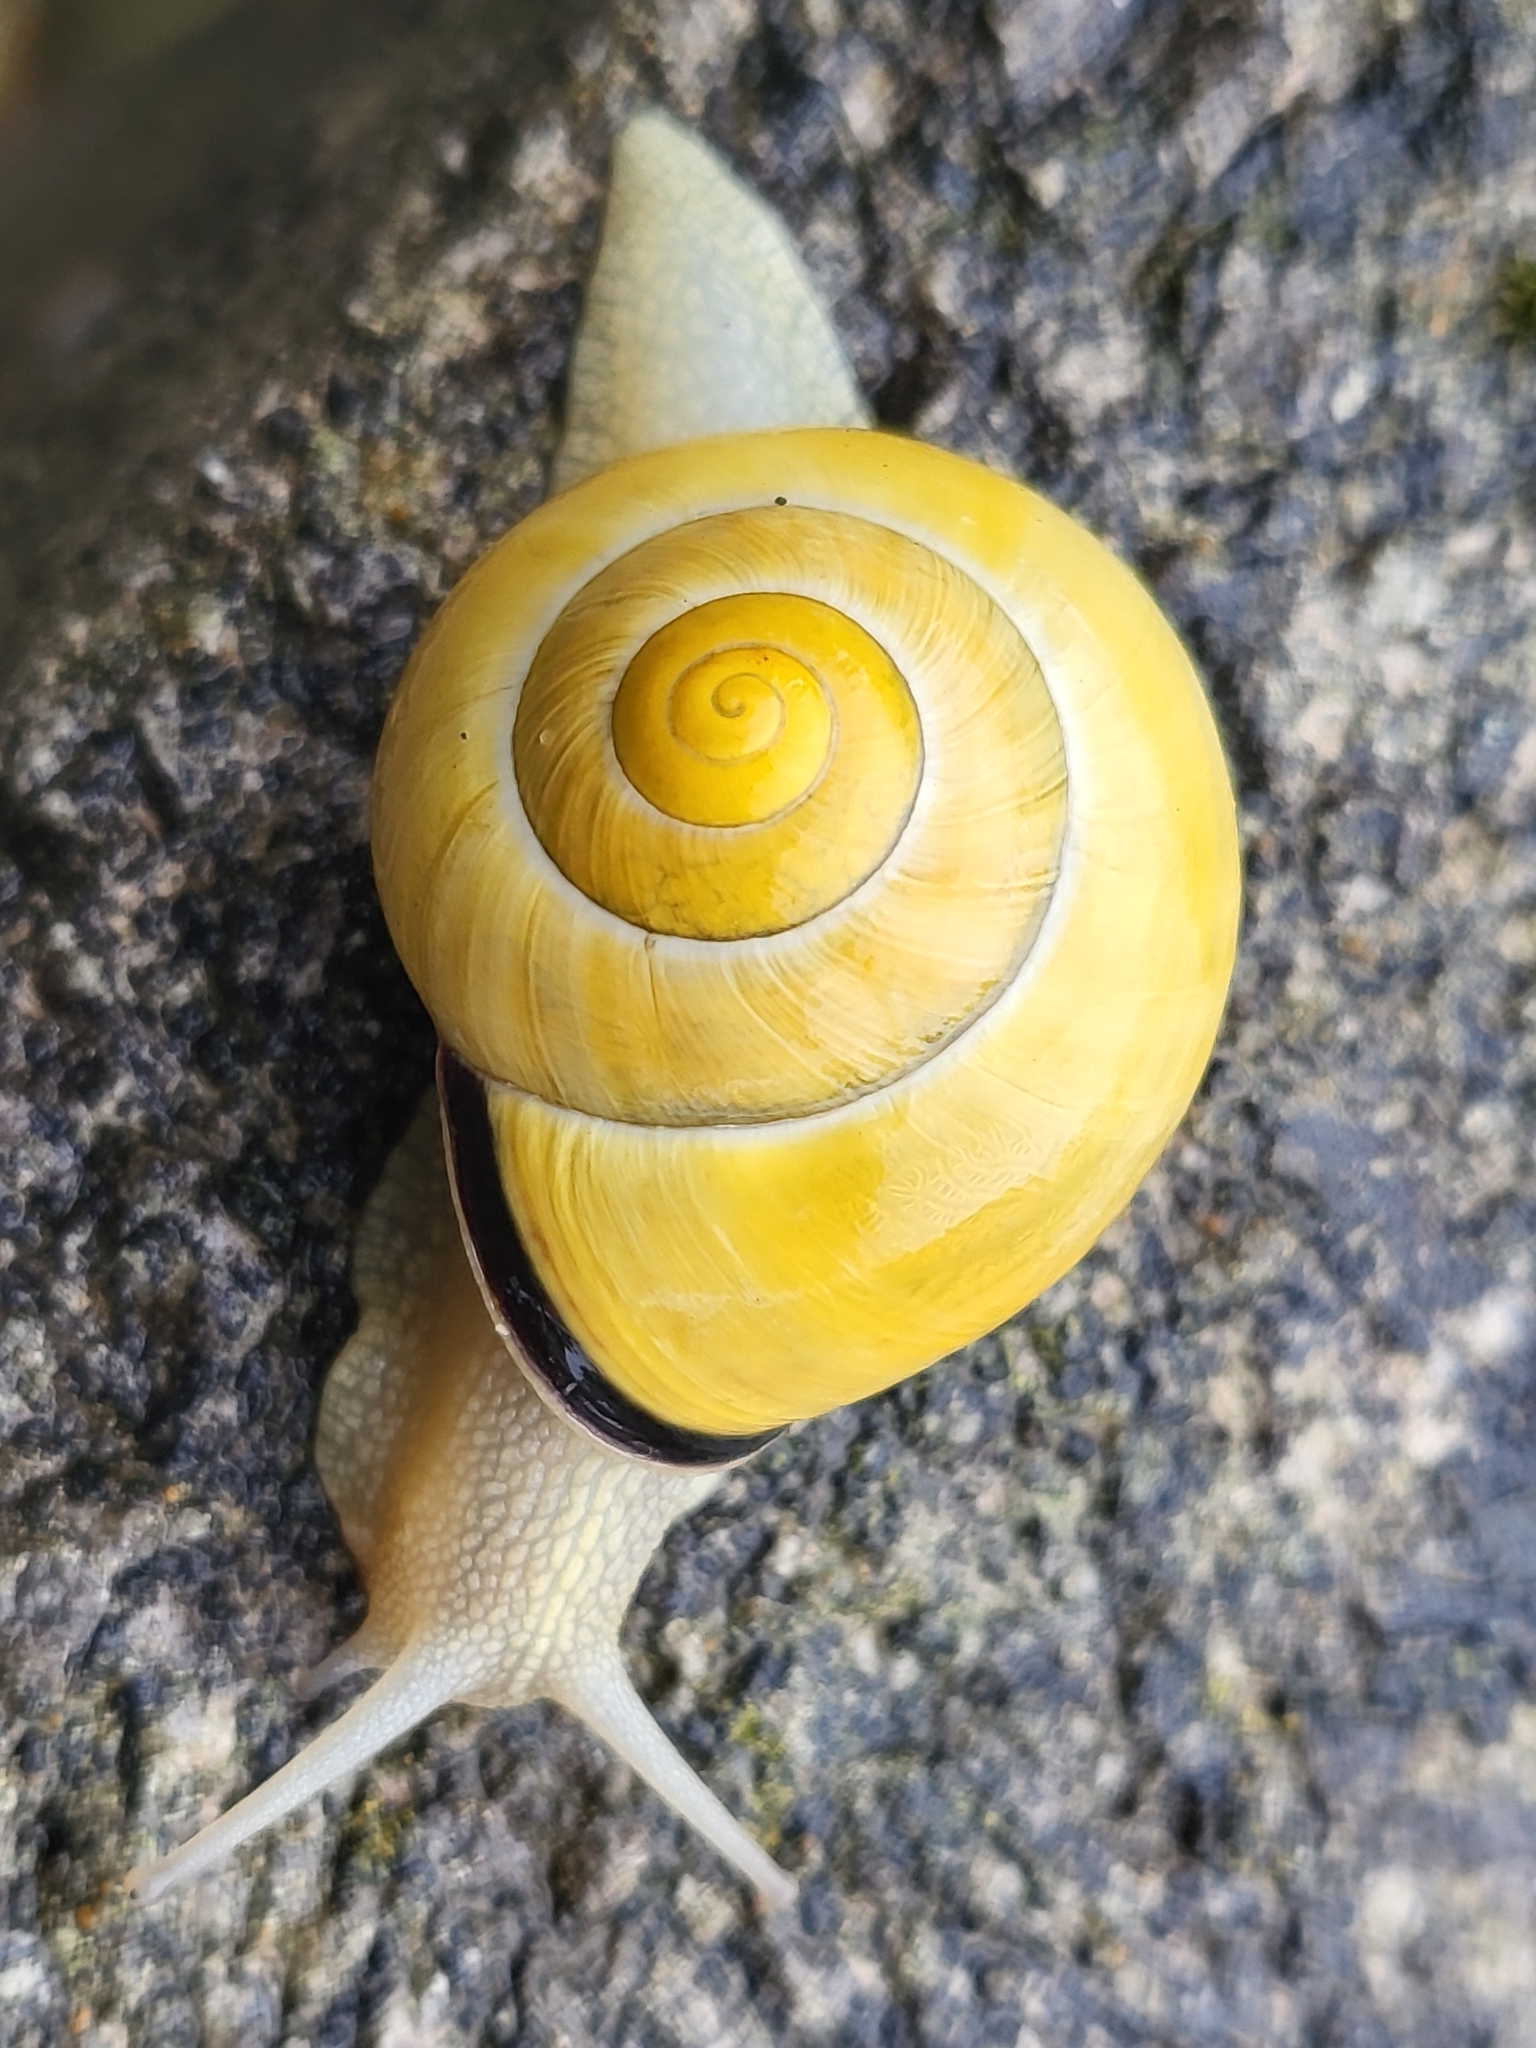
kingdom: Animalia
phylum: Mollusca
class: Gastropoda
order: Stylommatophora
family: Helicidae
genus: Cepaea
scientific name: Cepaea nemoralis
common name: Grovesnail
